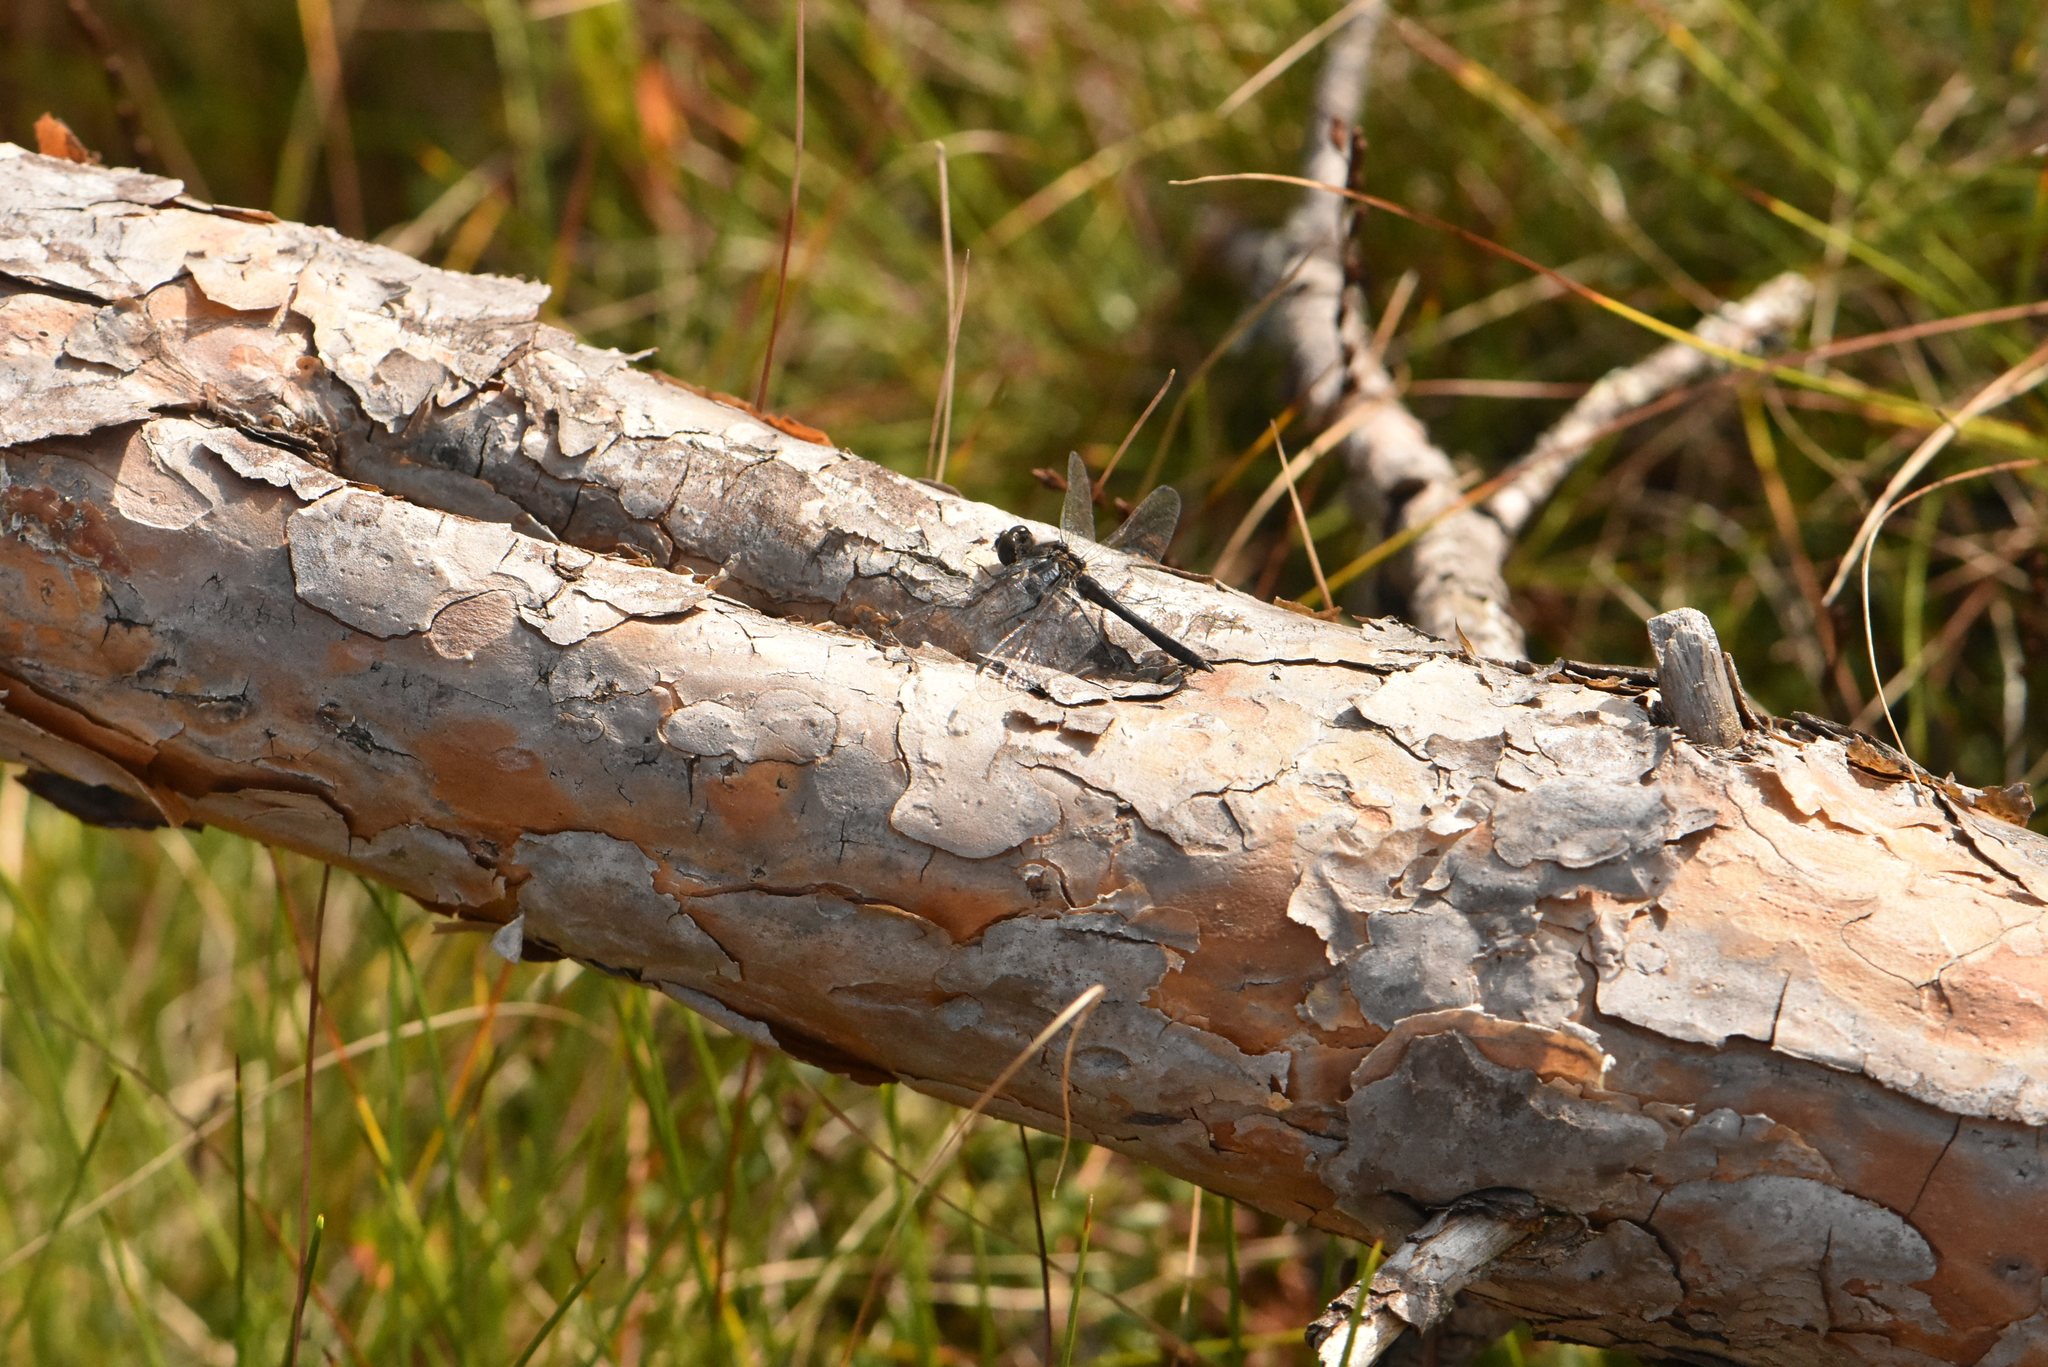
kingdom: Animalia
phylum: Arthropoda
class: Insecta
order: Odonata
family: Libellulidae
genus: Sympetrum
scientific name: Sympetrum danae
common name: Black darter
